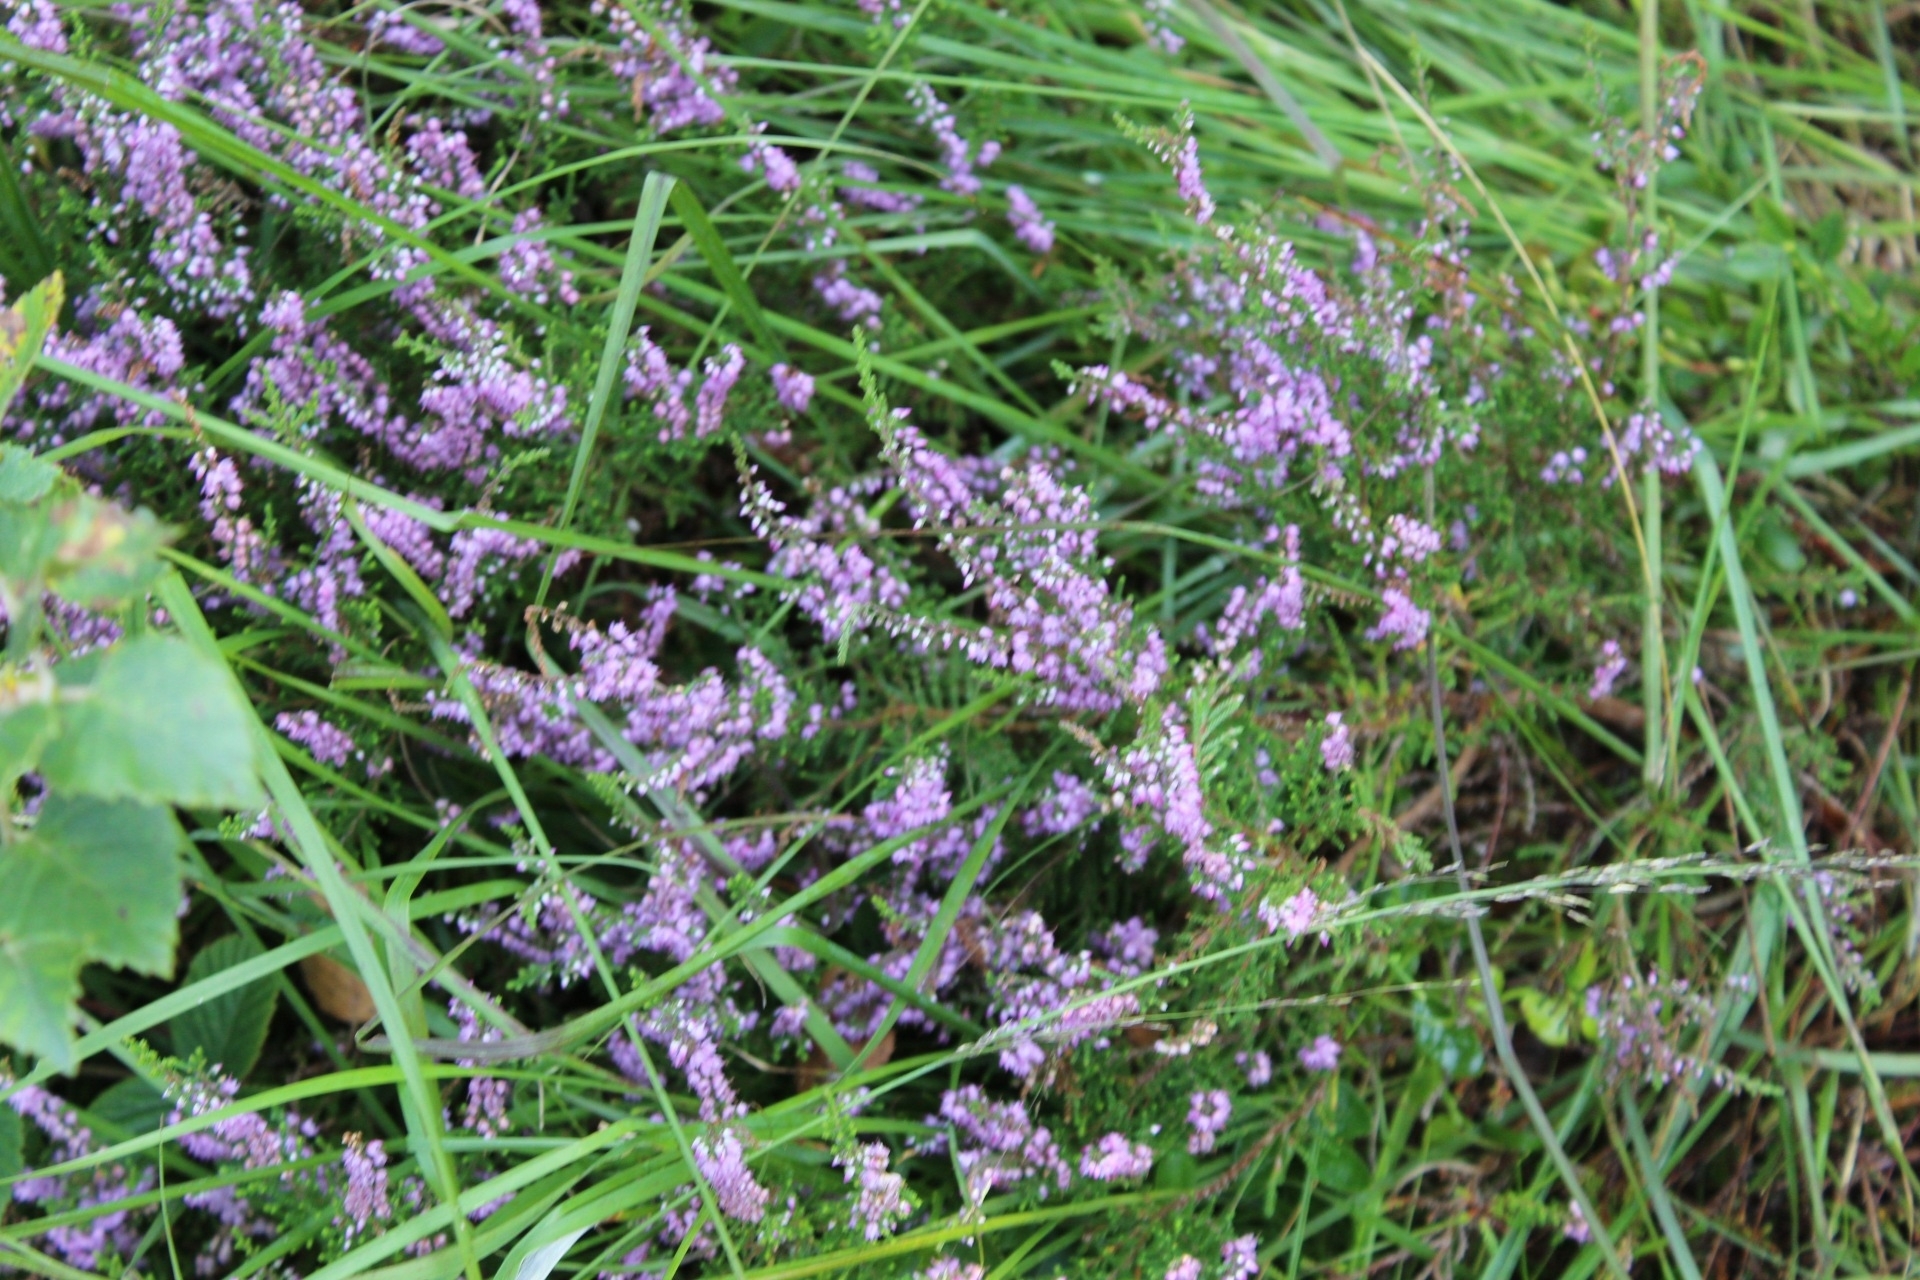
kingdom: Plantae
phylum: Tracheophyta
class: Magnoliopsida
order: Ericales
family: Ericaceae
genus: Calluna
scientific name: Calluna vulgaris
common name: Heather
